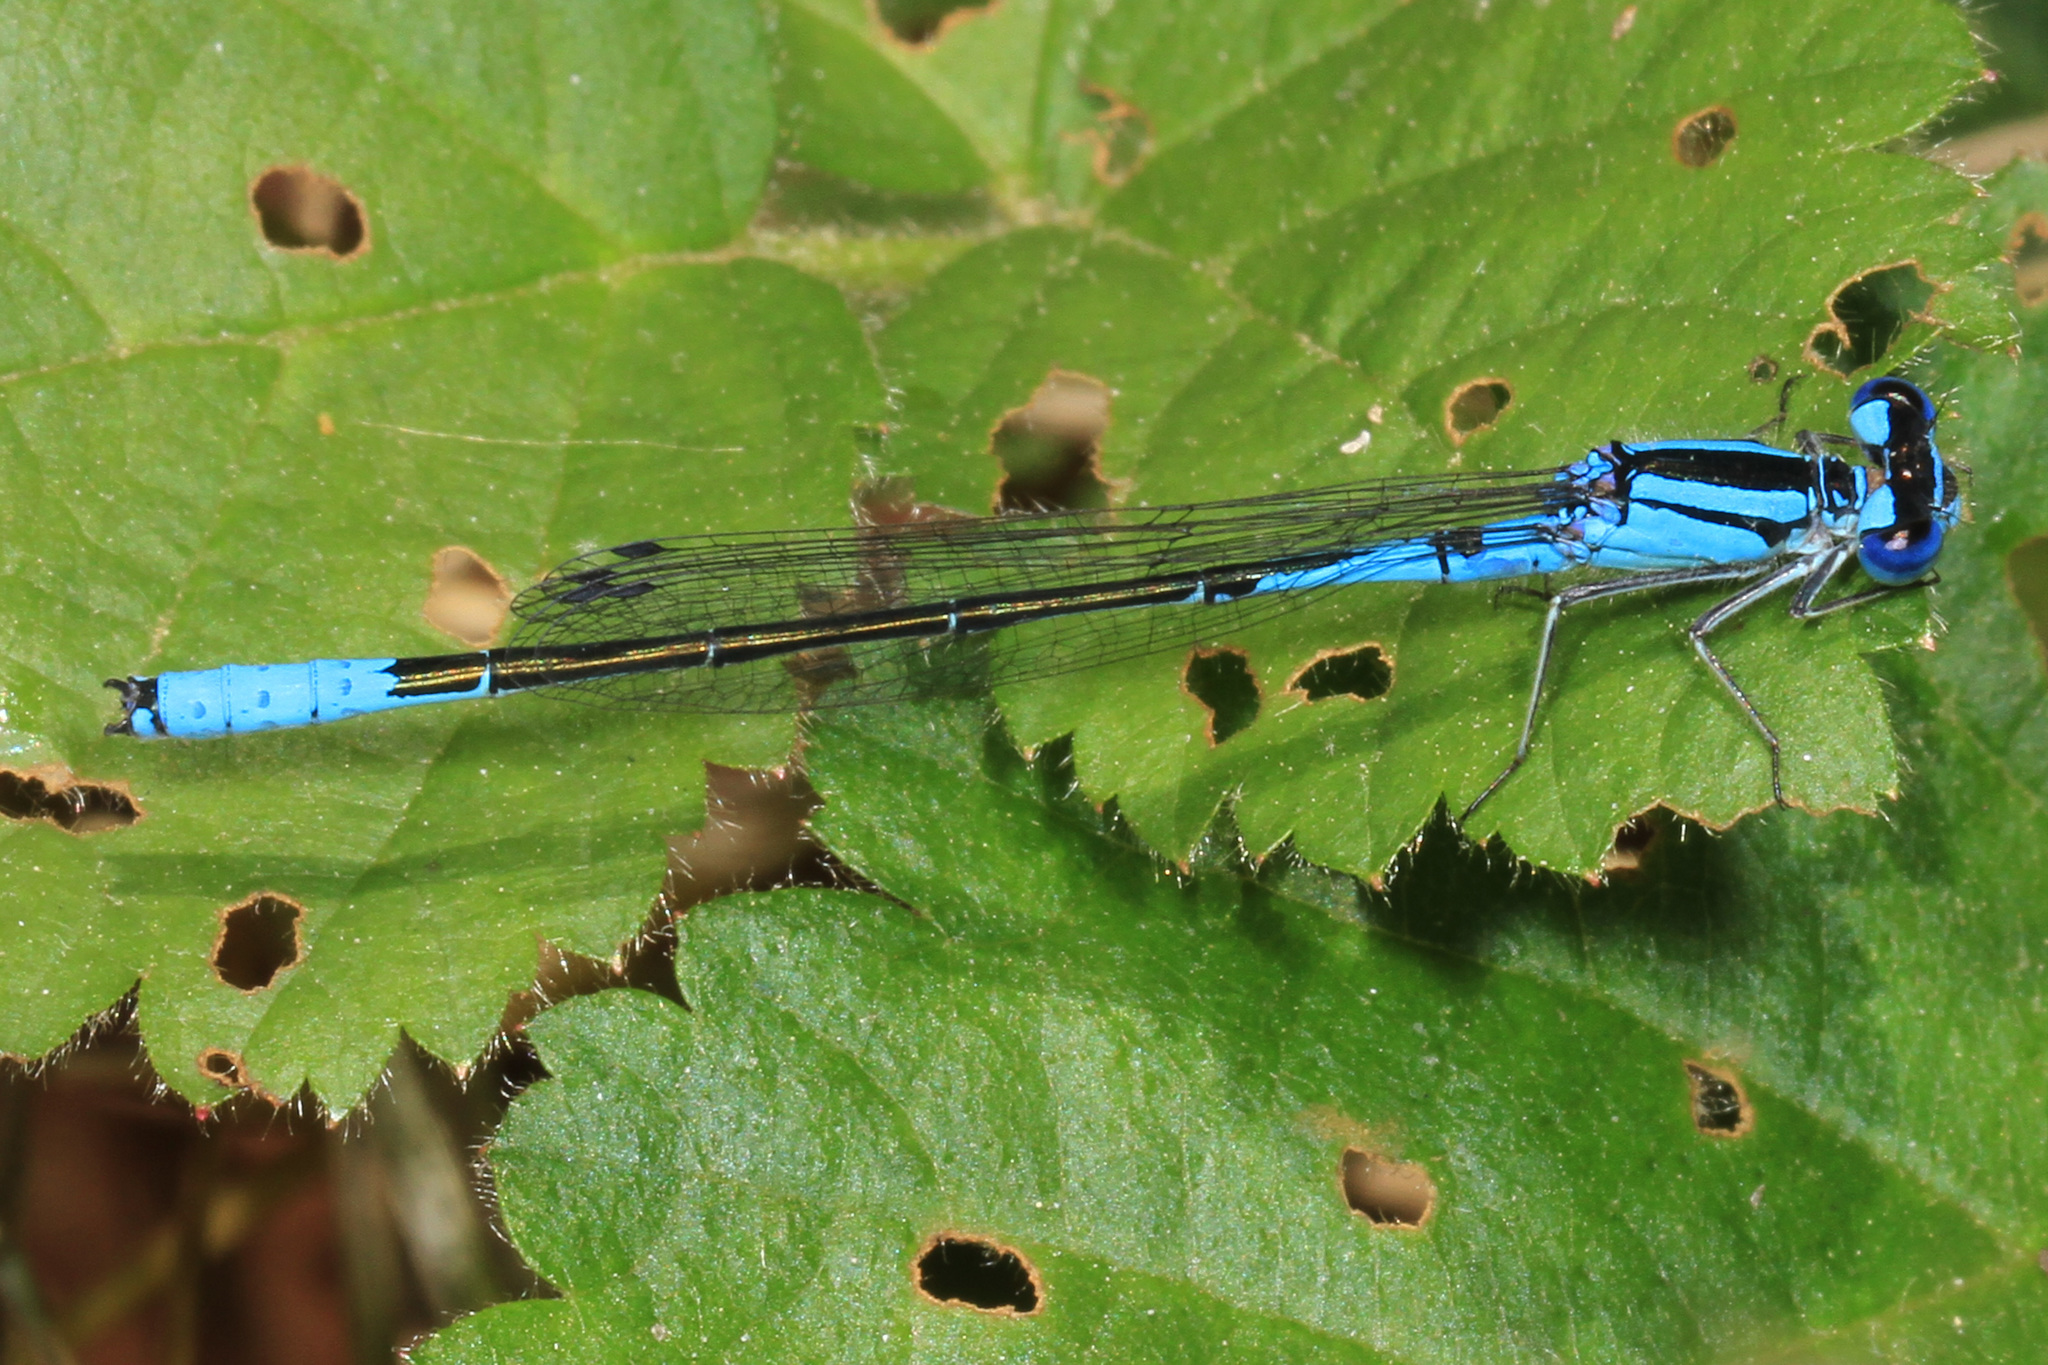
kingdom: Animalia
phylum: Arthropoda
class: Insecta
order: Odonata
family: Coenagrionidae
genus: Enallagma
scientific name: Enallagma aspersum
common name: Azure bluet
